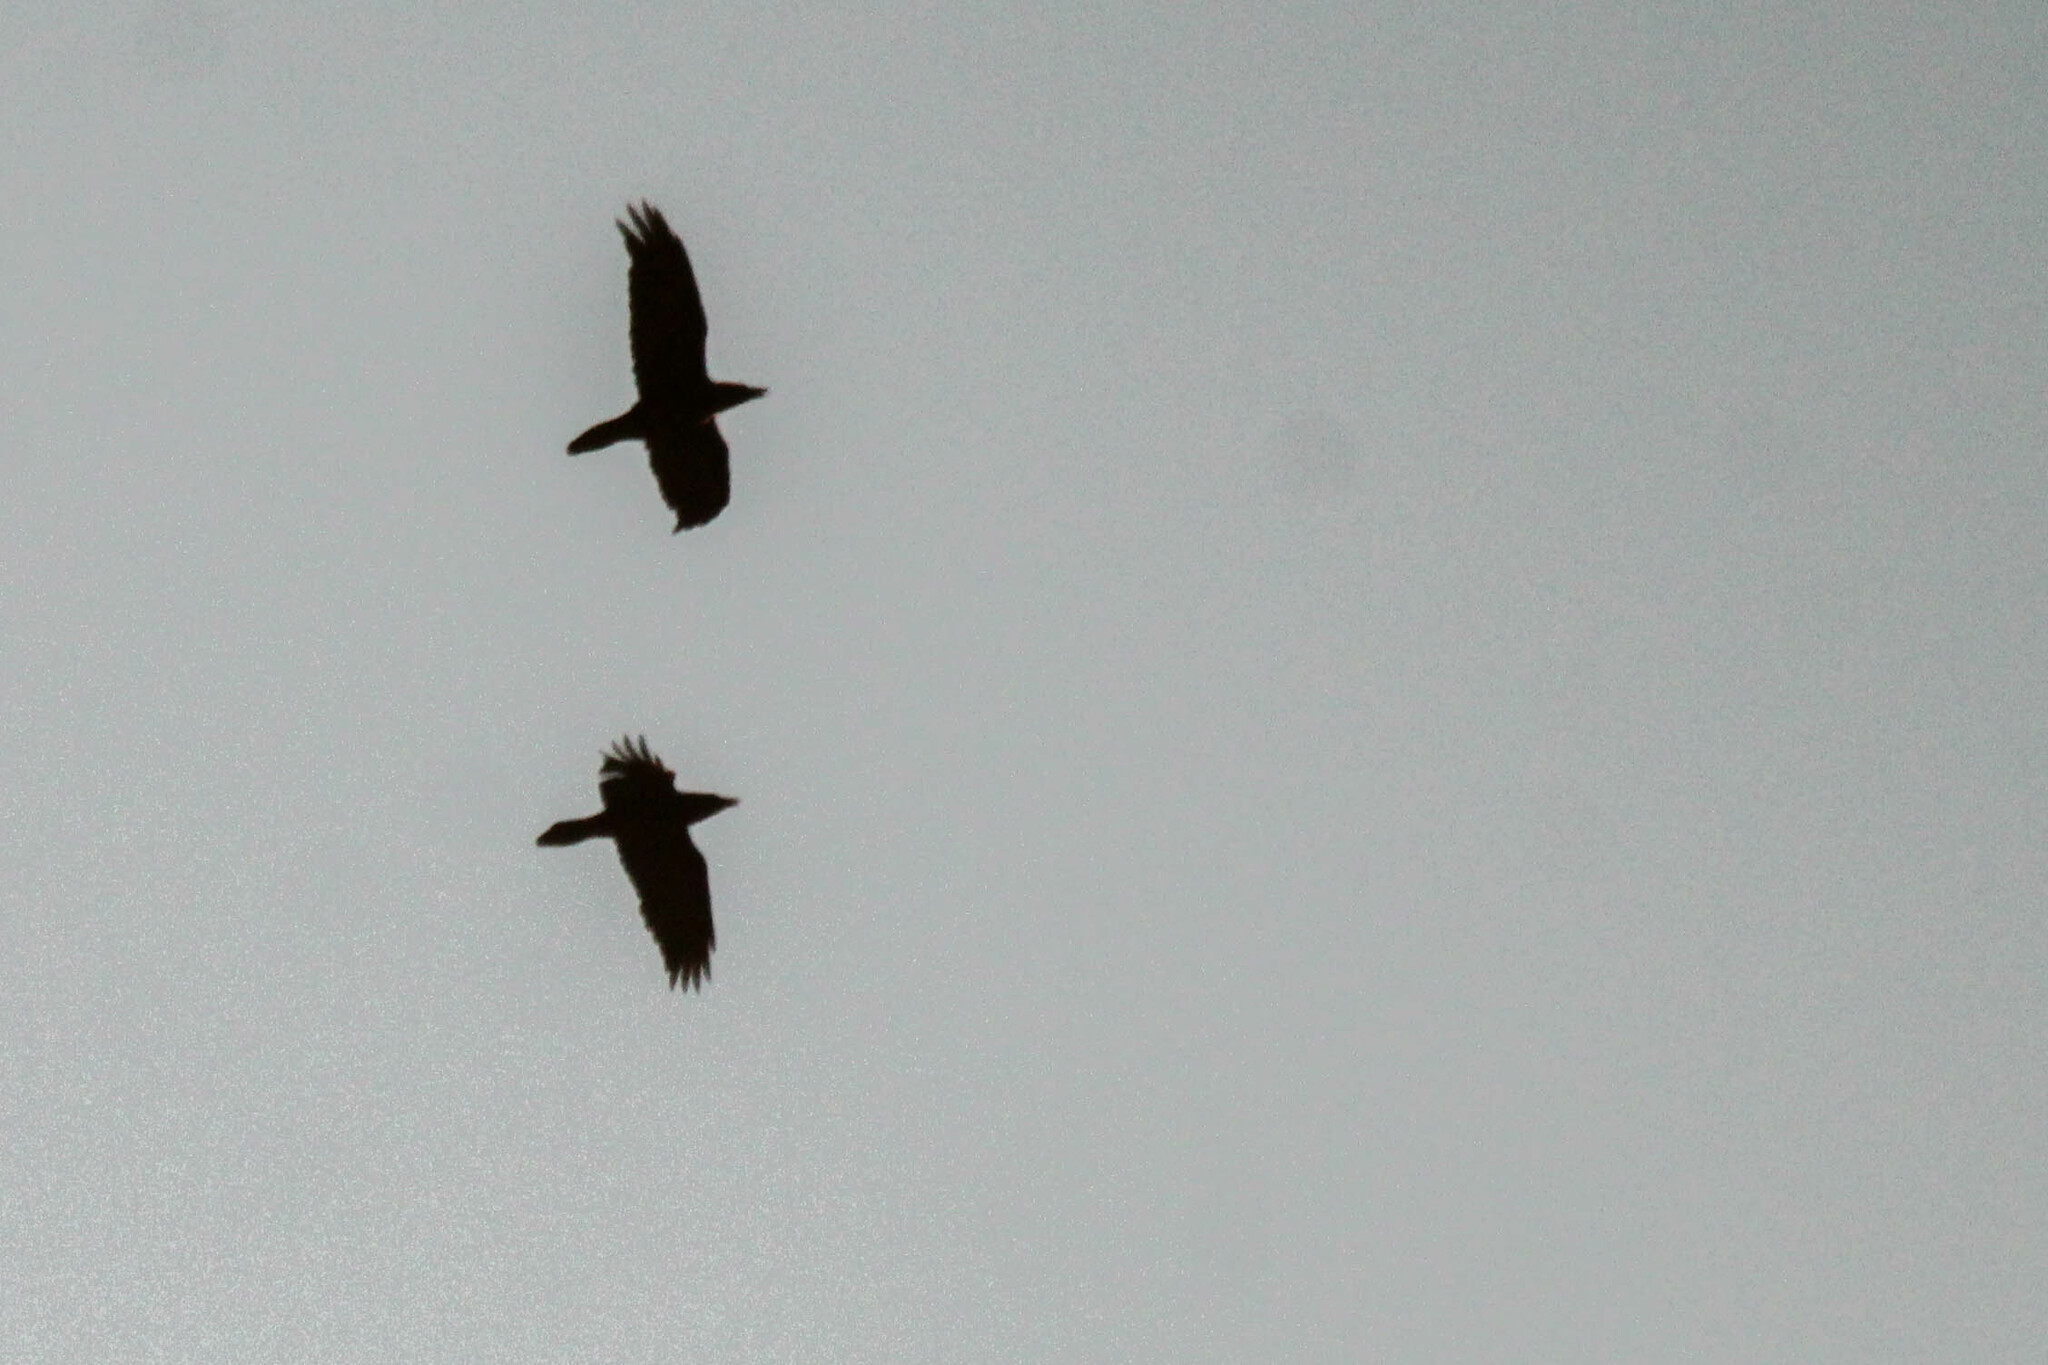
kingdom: Animalia
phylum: Chordata
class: Aves
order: Passeriformes
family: Corvidae
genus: Corvus
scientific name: Corvus corax
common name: Common raven
